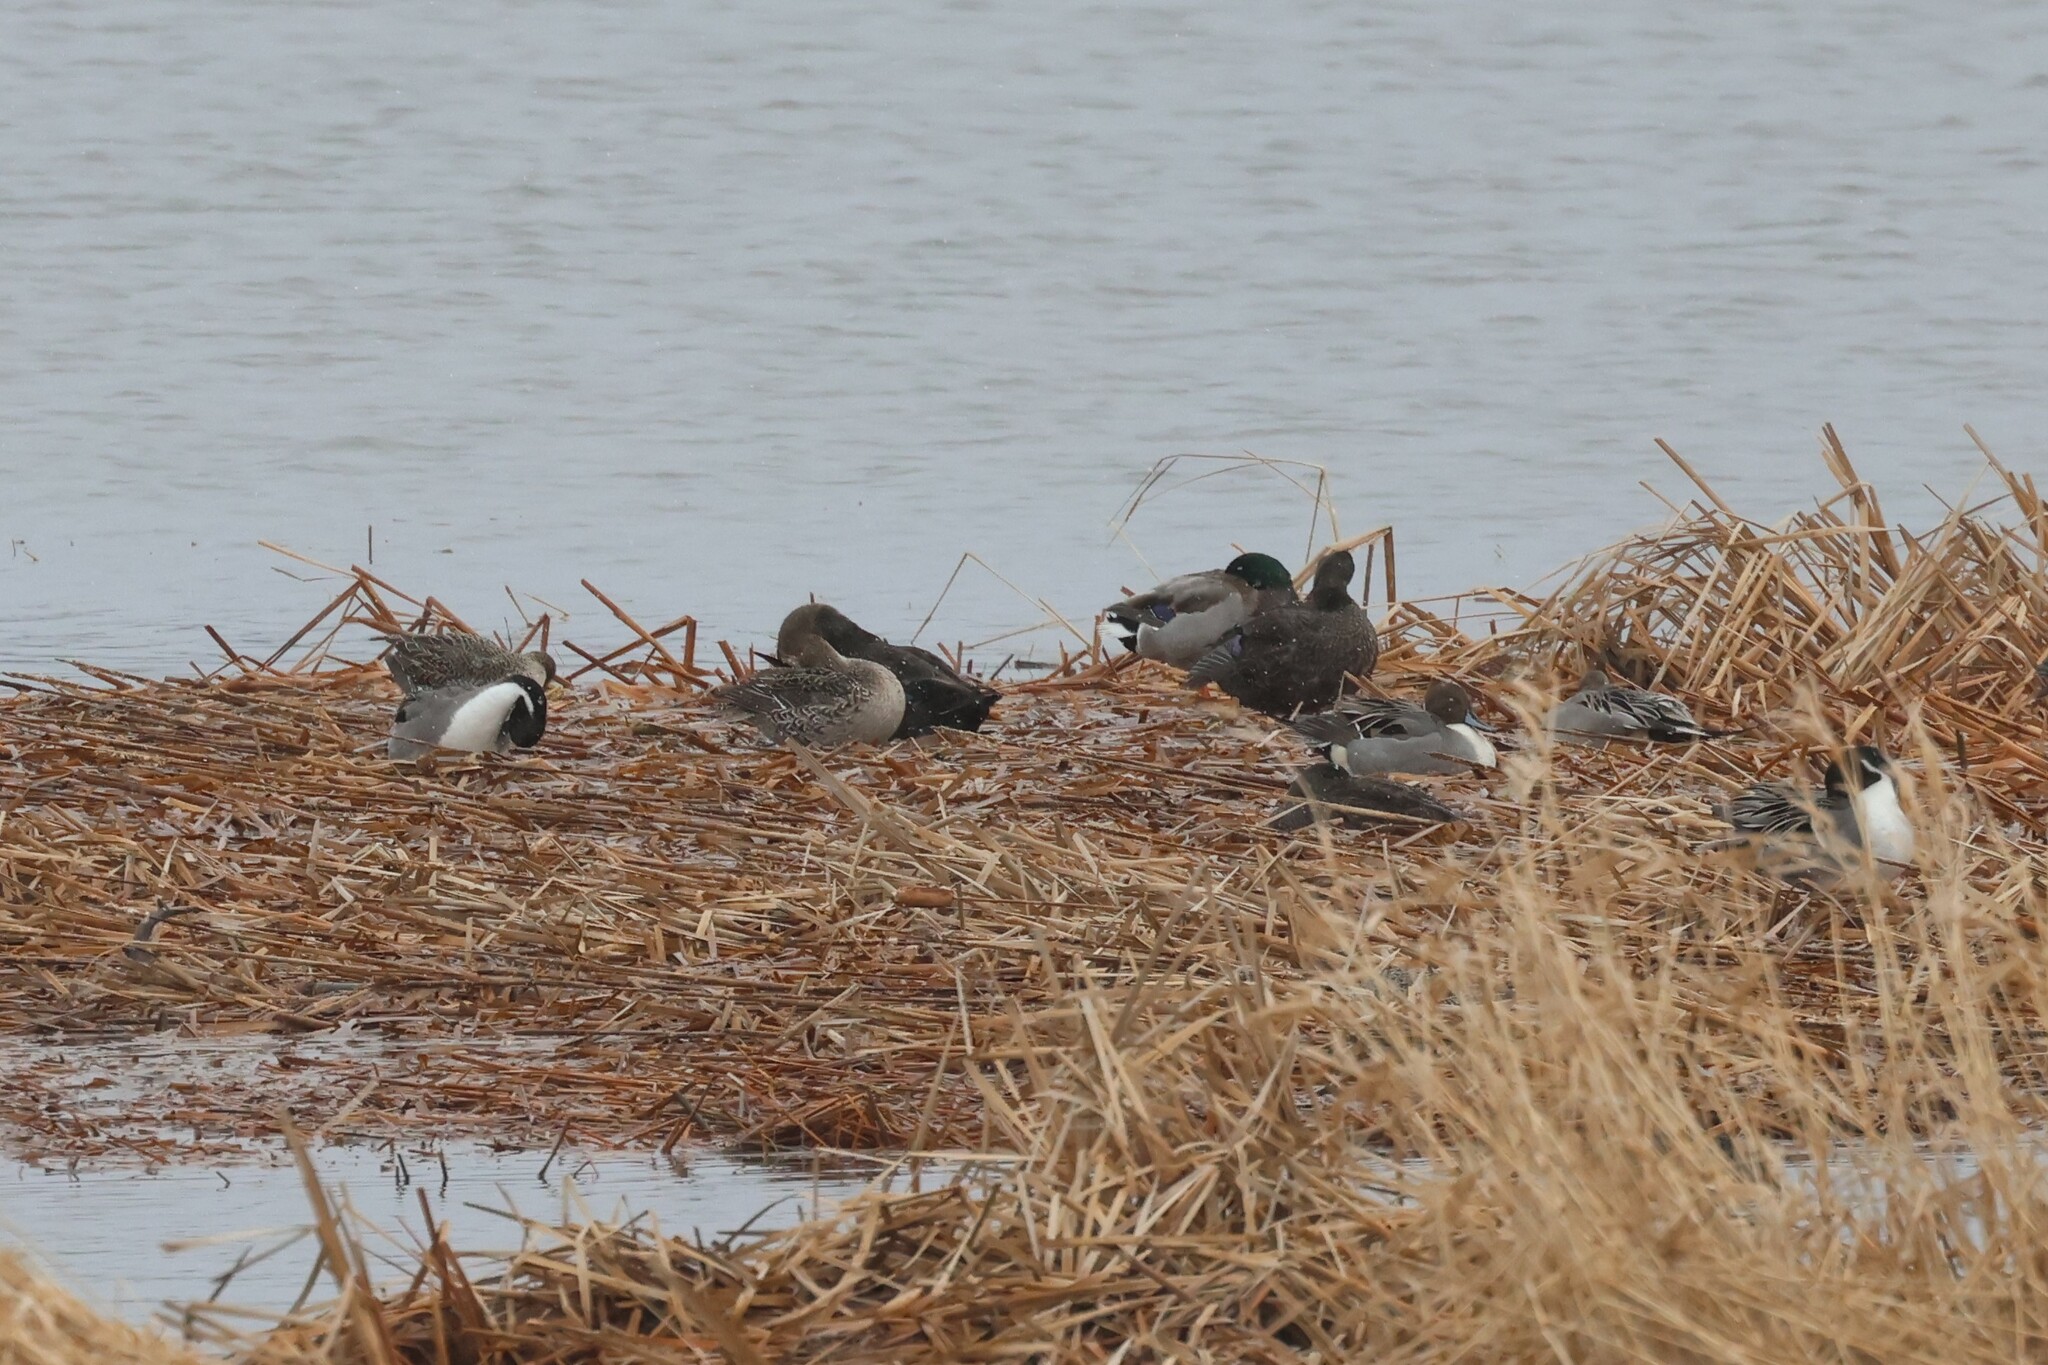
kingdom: Animalia
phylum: Chordata
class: Aves
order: Anseriformes
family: Anatidae
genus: Anas
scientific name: Anas acuta
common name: Northern pintail
